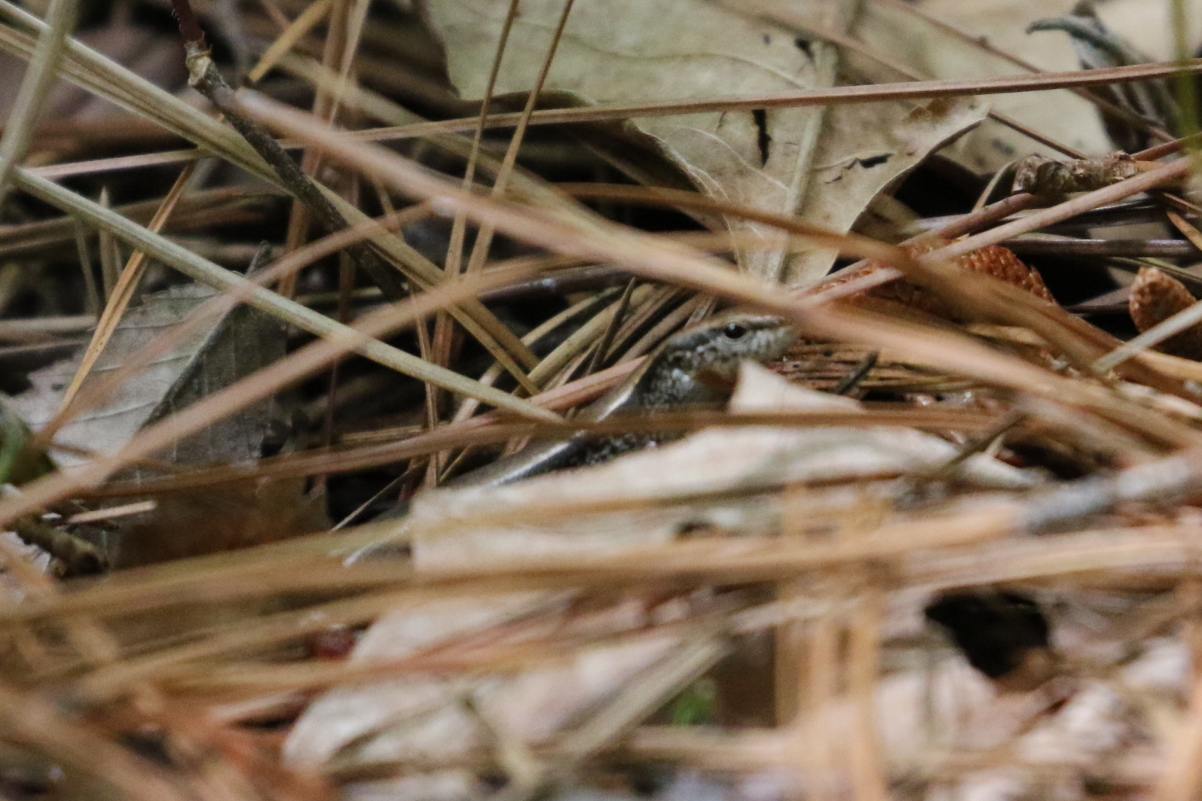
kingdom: Animalia
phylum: Chordata
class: Squamata
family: Scincidae
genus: Scincella
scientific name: Scincella lateralis
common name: Ground skink
